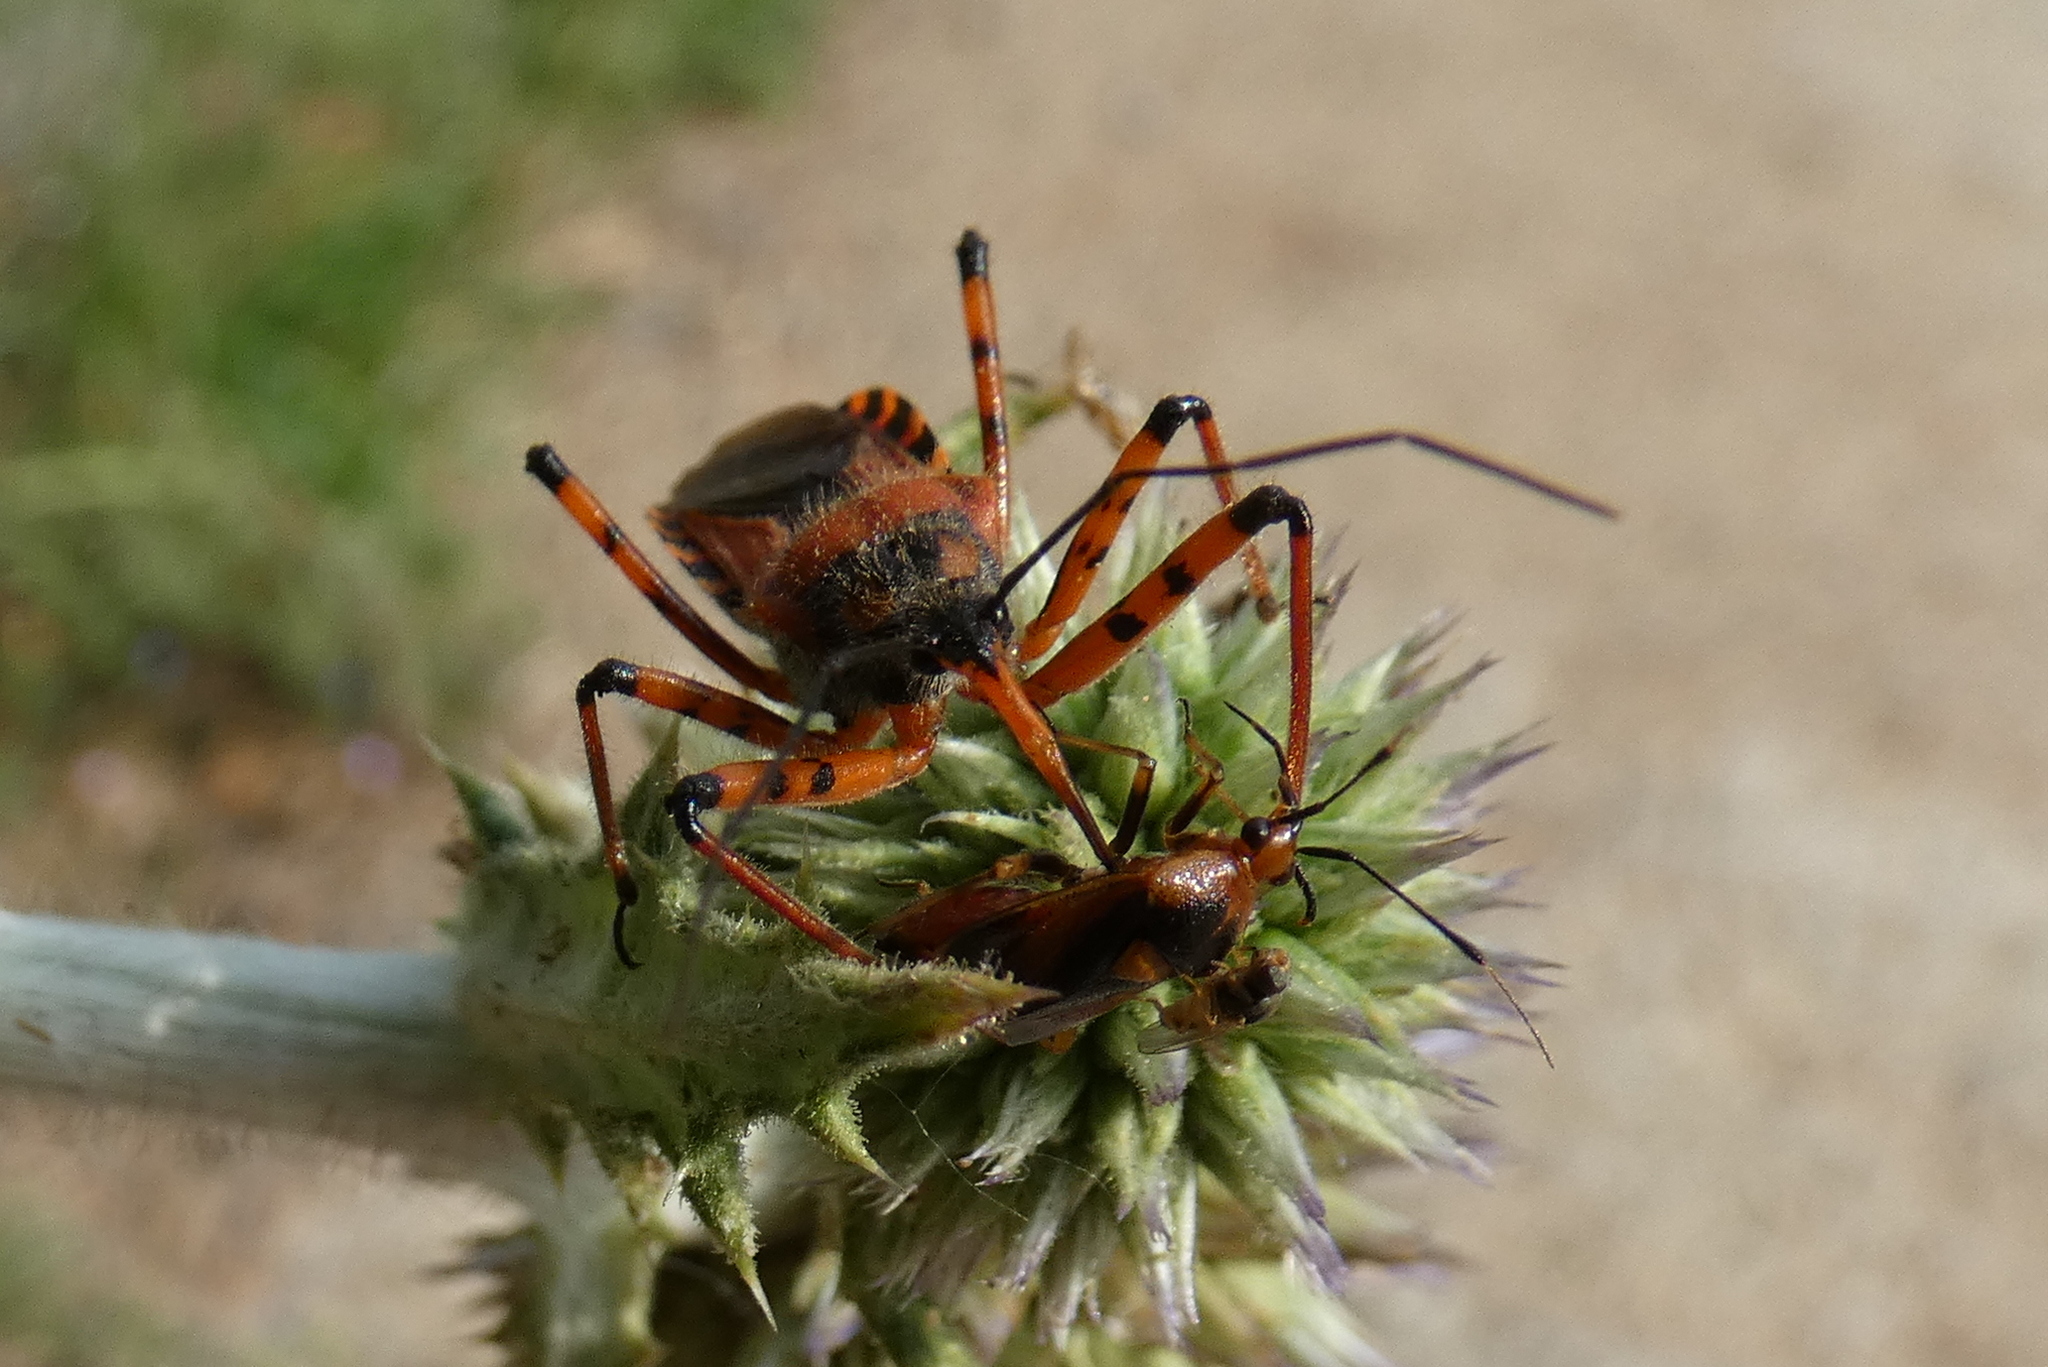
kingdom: Animalia
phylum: Arthropoda
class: Insecta
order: Hemiptera
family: Reduviidae
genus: Rhynocoris
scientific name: Rhynocoris iracundus
